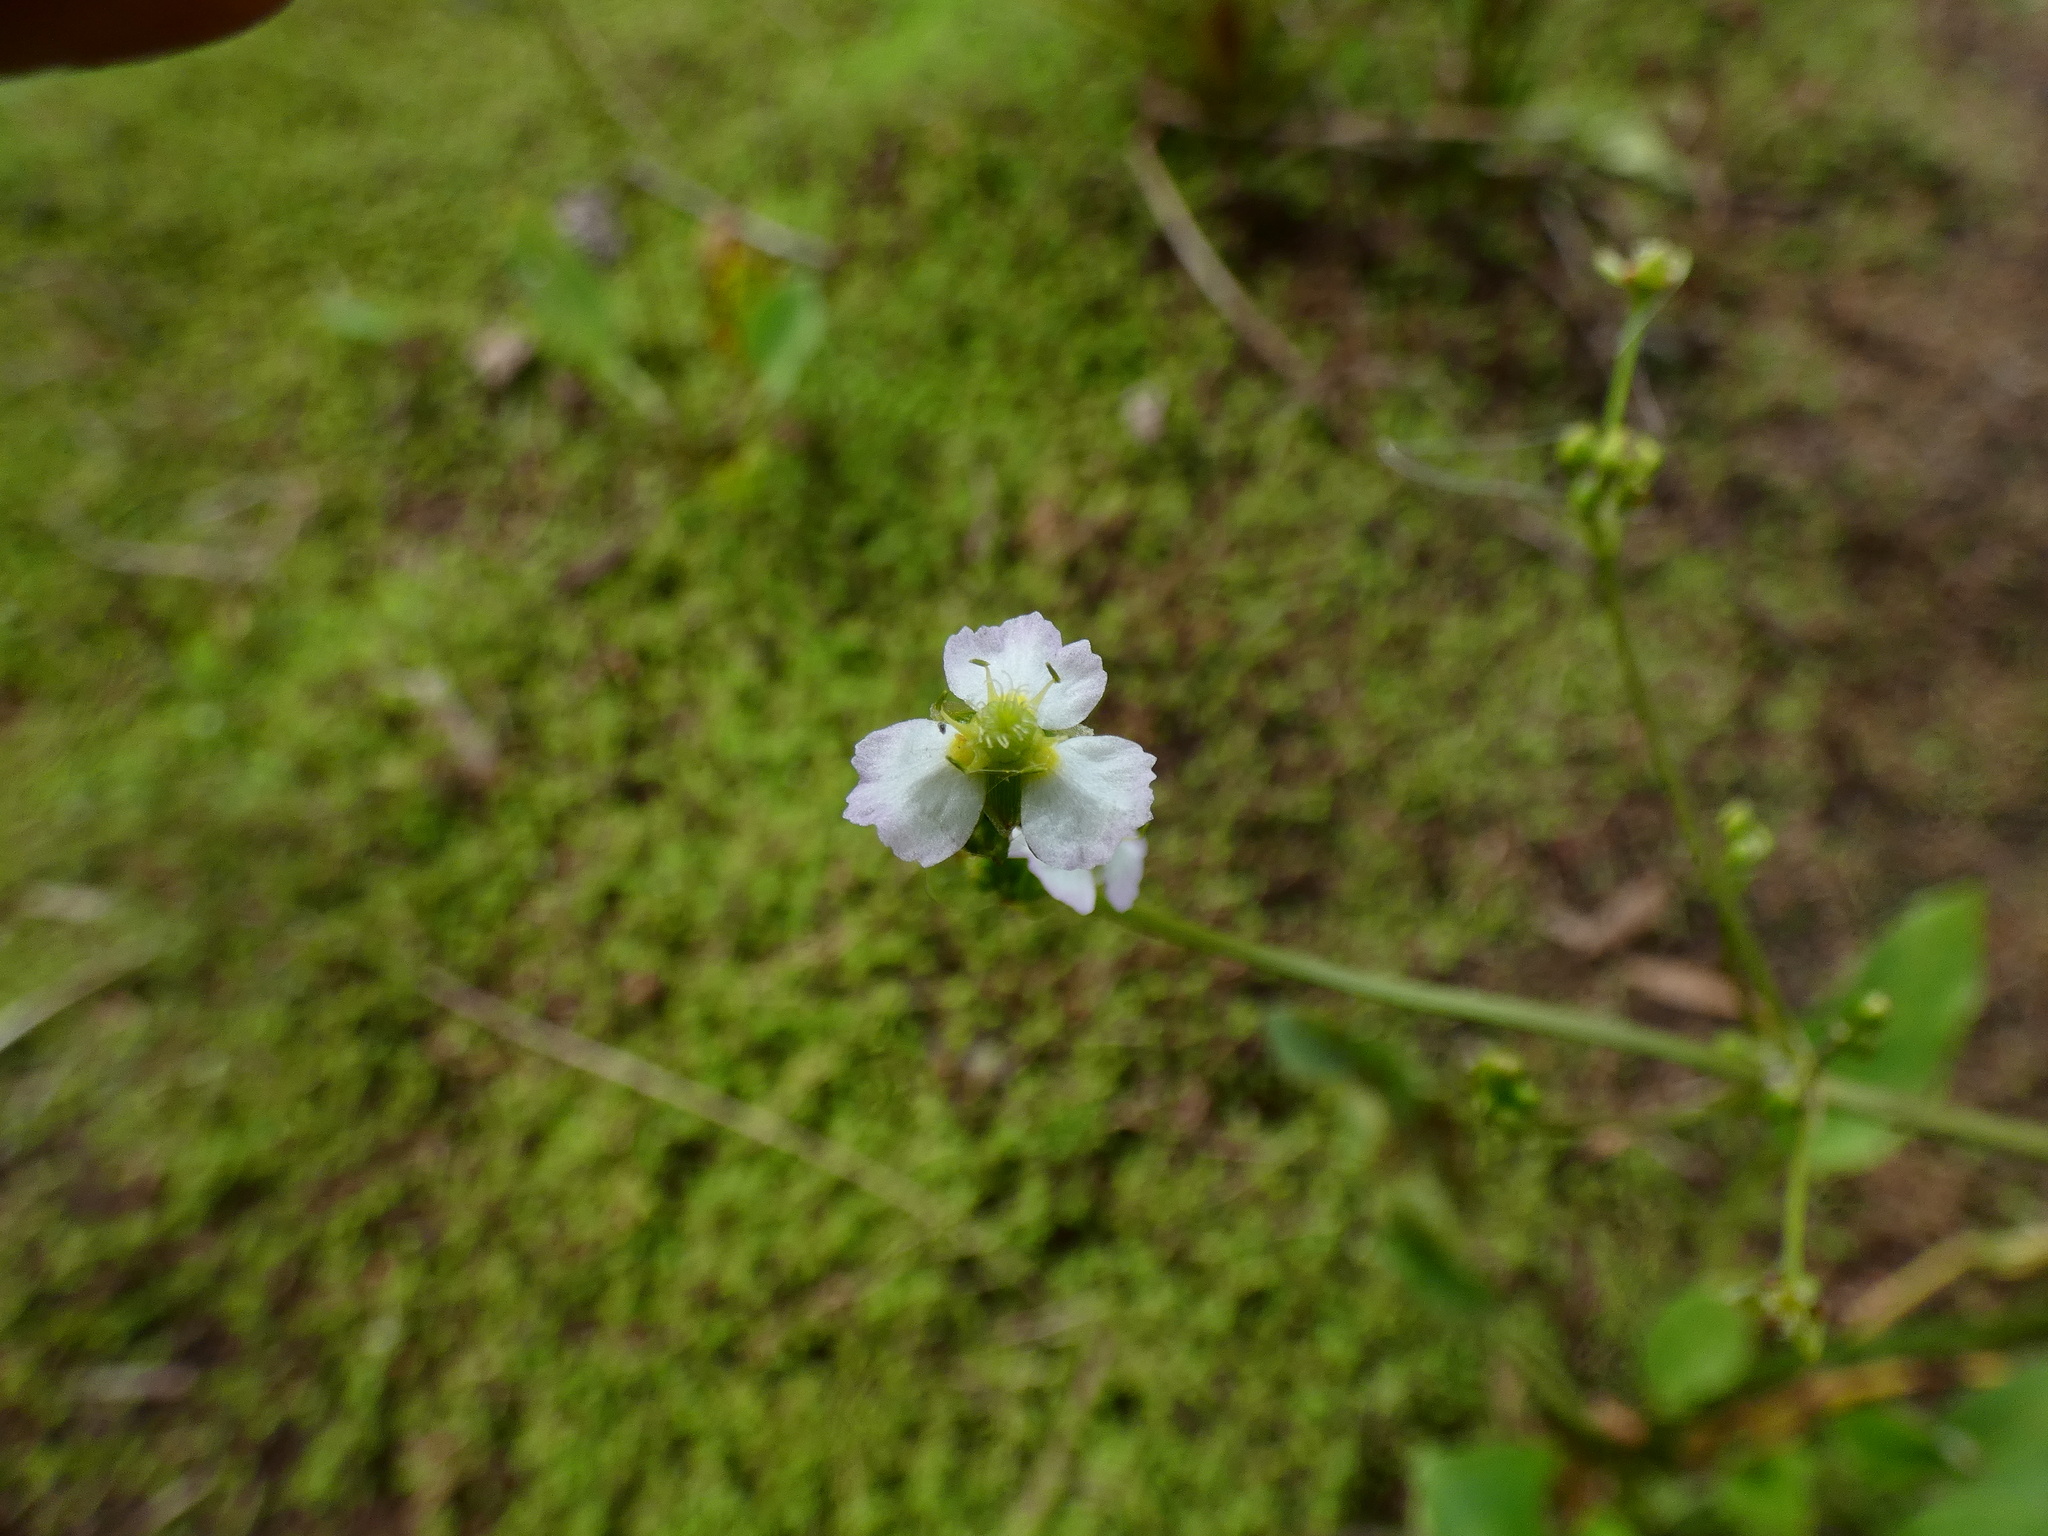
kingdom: Plantae
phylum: Tracheophyta
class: Liliopsida
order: Alismatales
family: Alismataceae
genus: Alisma
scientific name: Alisma plantago-aquatica
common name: Water-plantain
